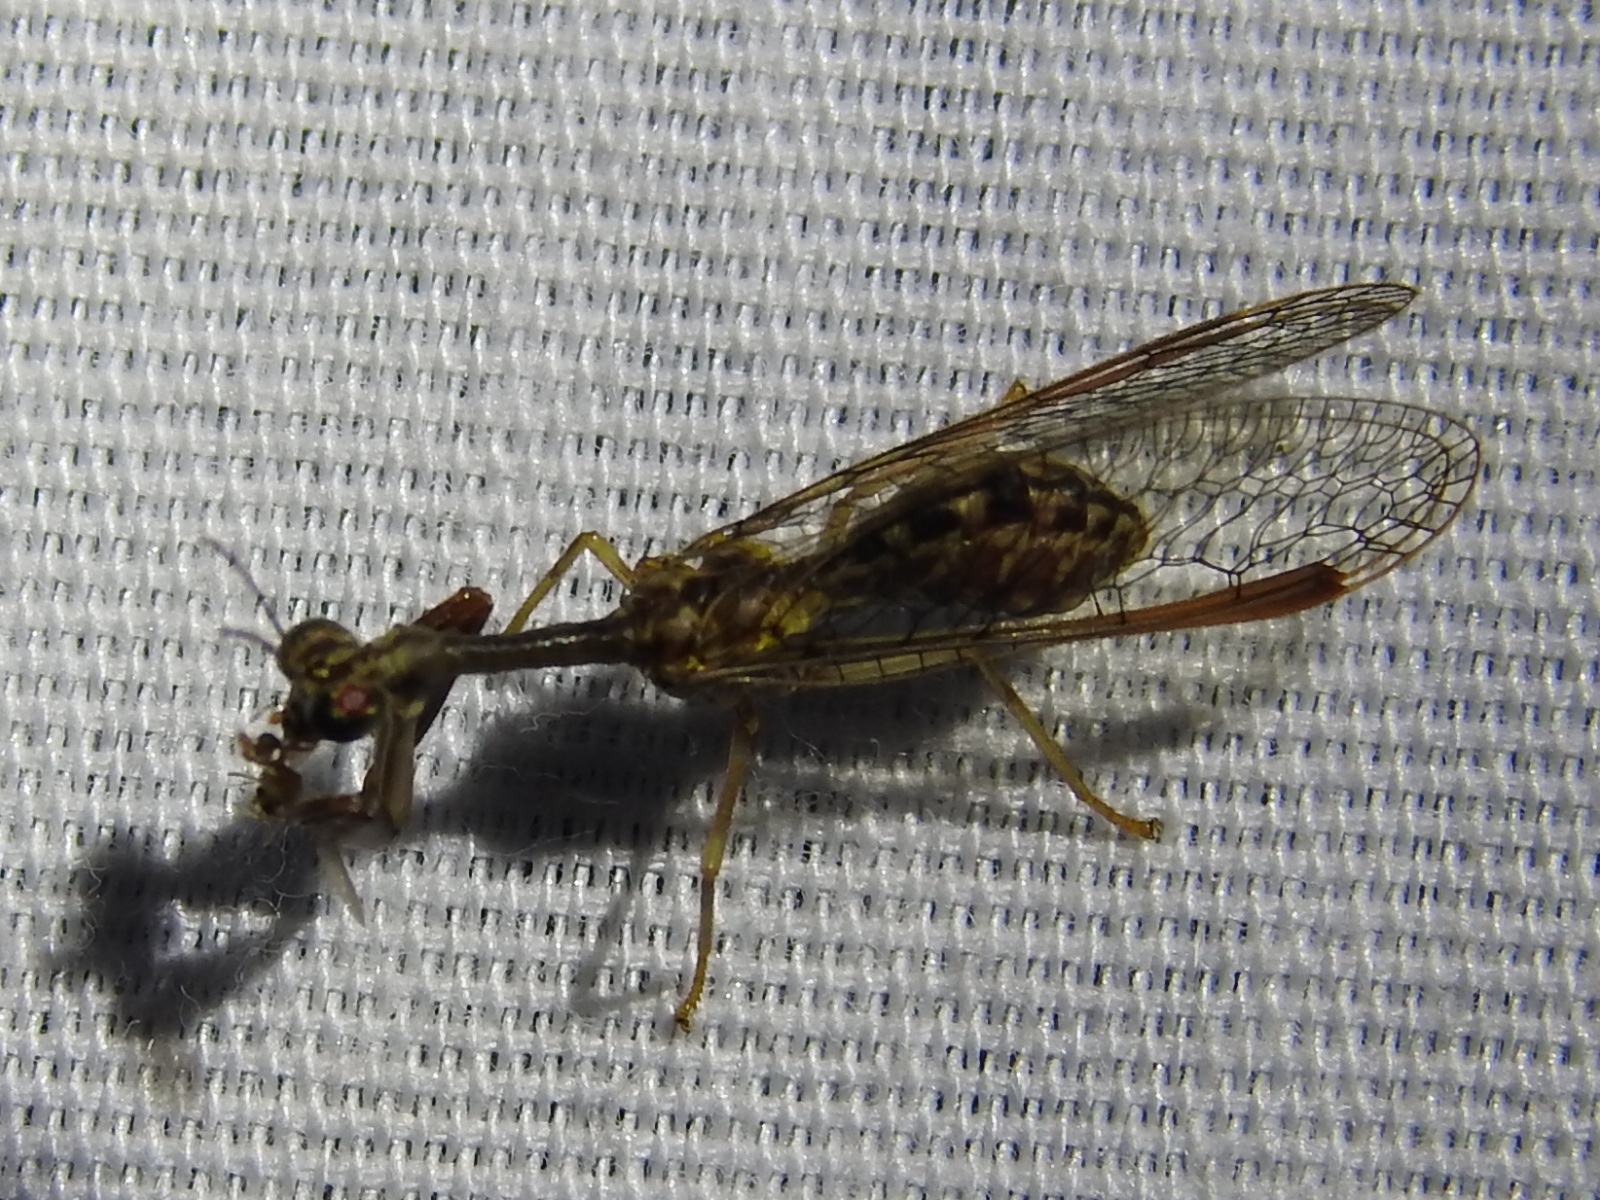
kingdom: Animalia
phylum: Arthropoda
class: Insecta
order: Neuroptera
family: Mantispidae
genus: Dicromantispa
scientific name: Dicromantispa sayi
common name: Say's mantidfly
